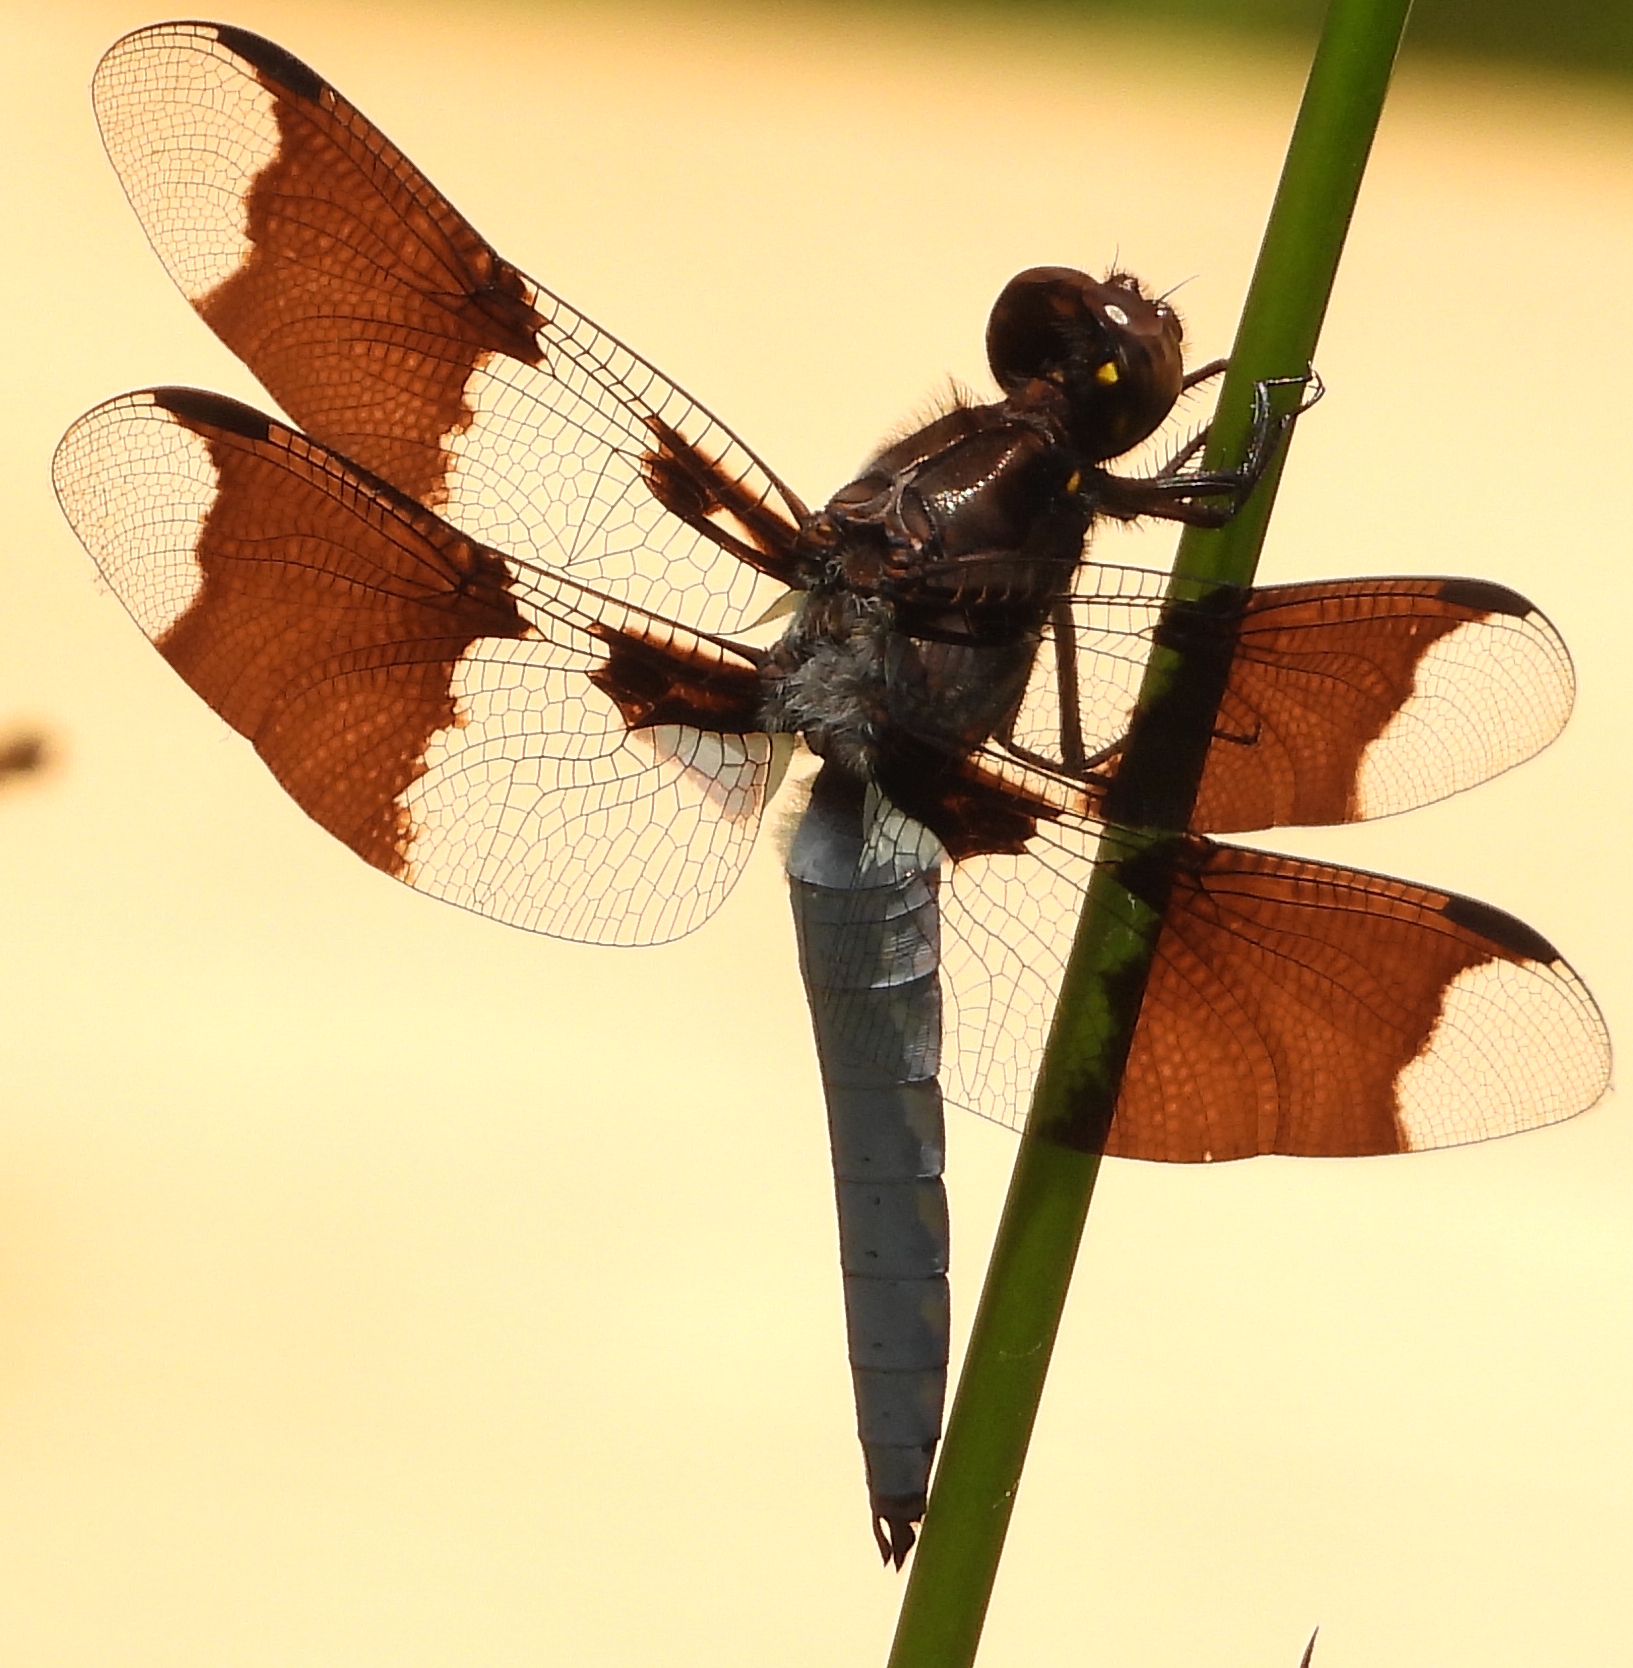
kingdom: Animalia
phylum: Arthropoda
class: Insecta
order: Odonata
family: Libellulidae
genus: Plathemis
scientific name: Plathemis lydia
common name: Common whitetail
